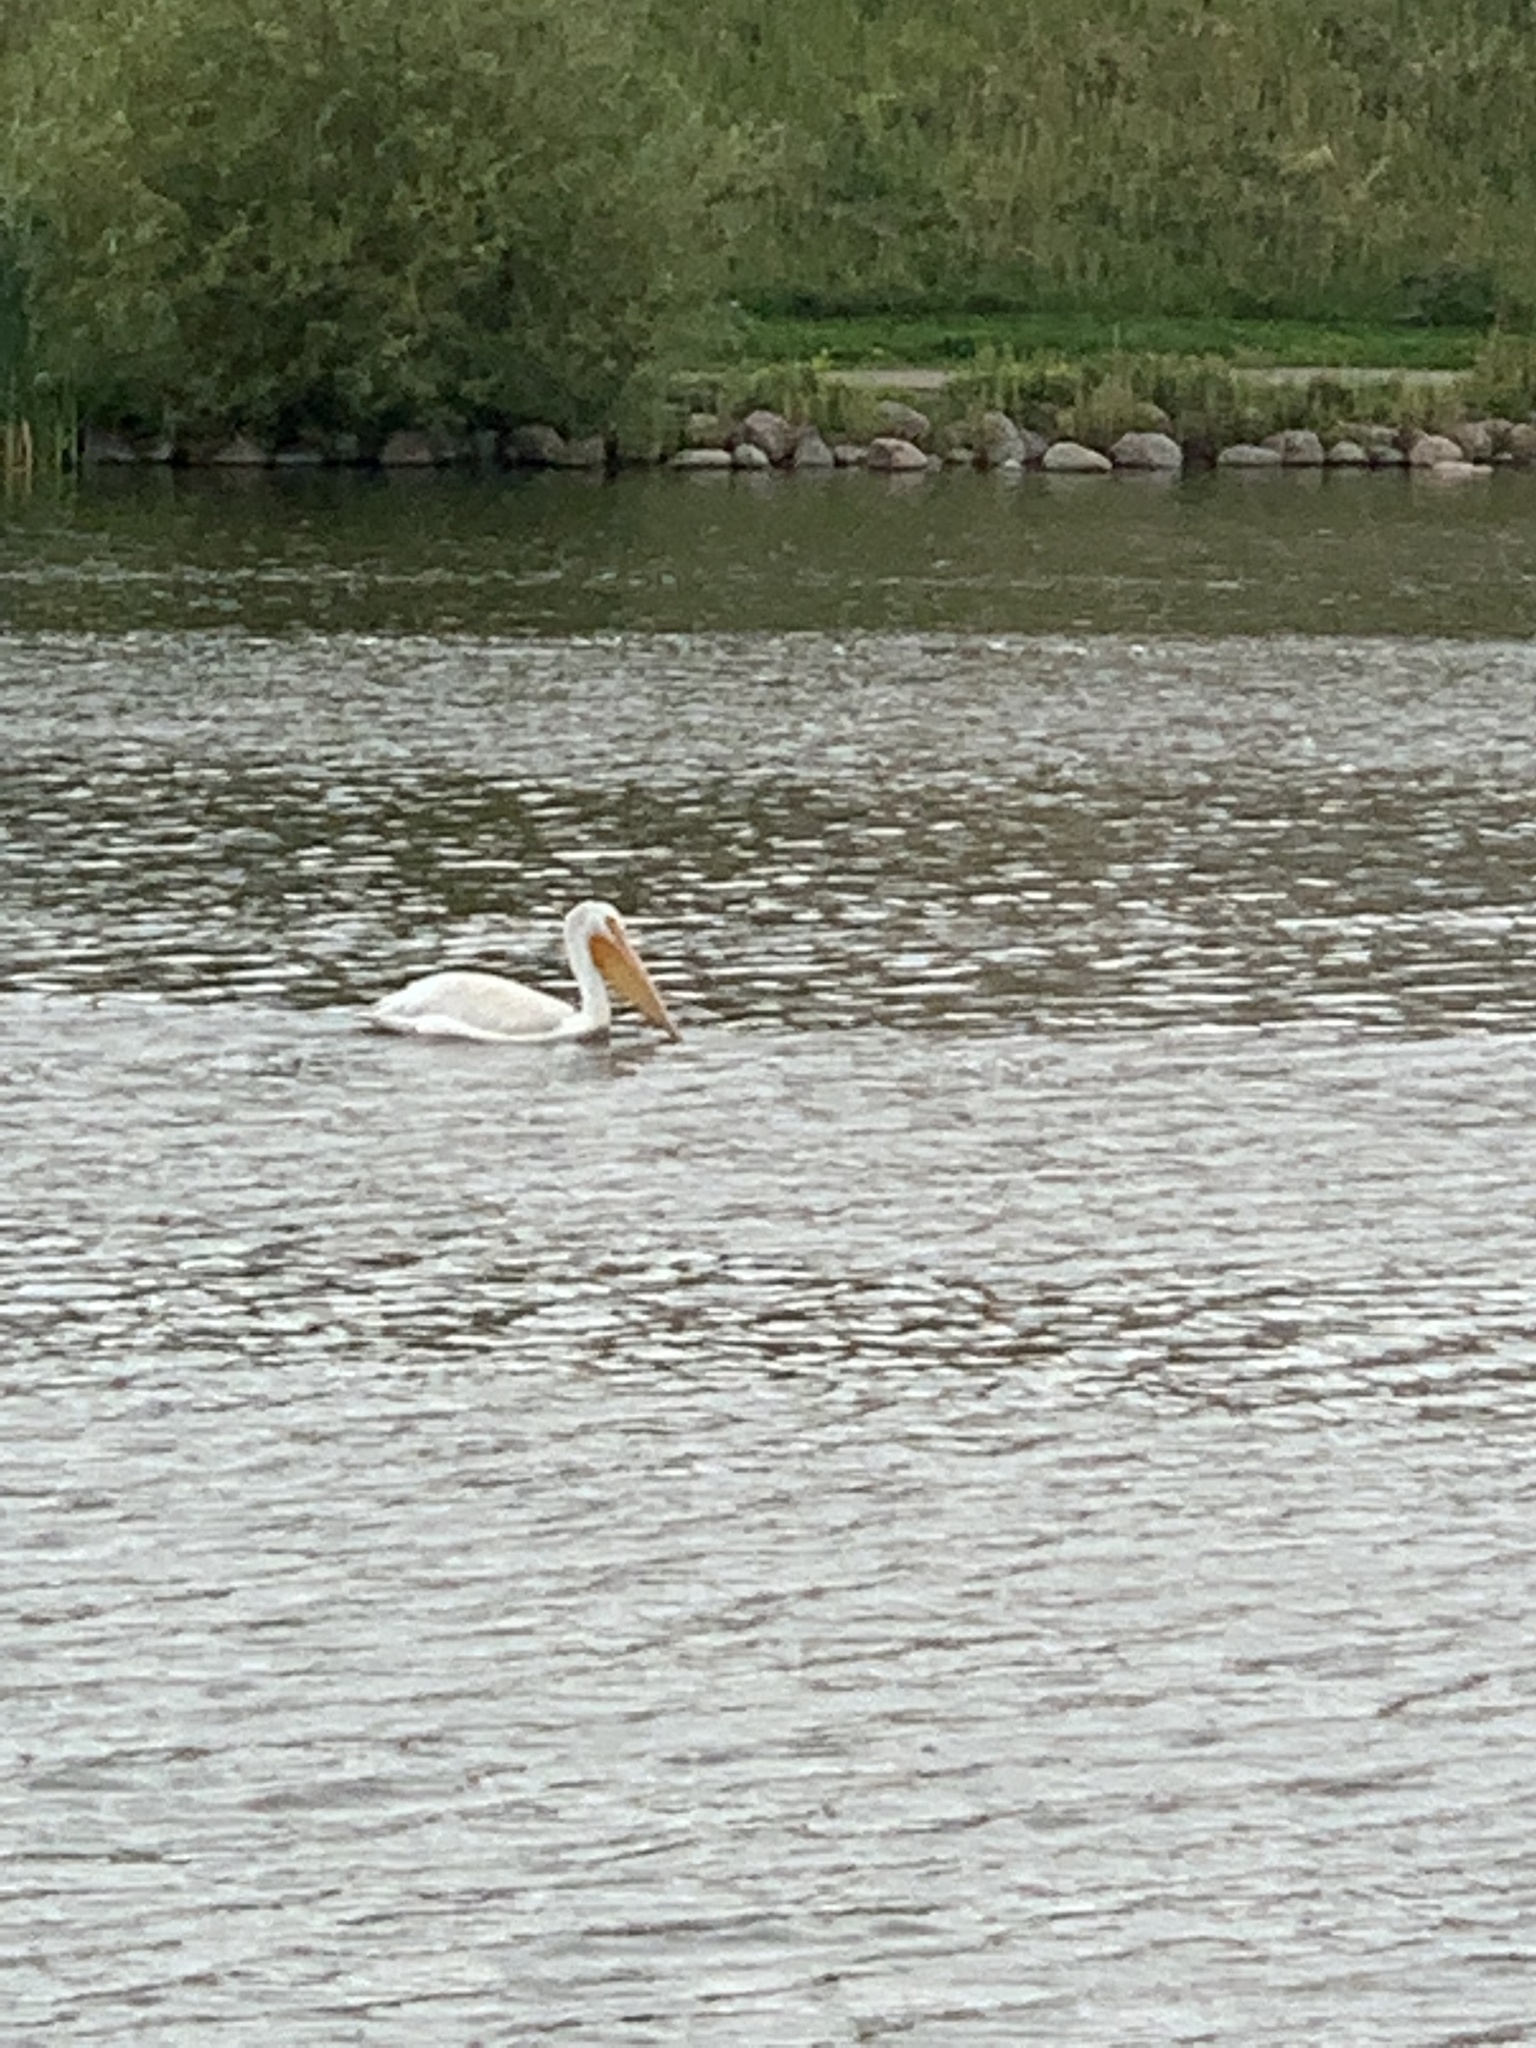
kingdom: Animalia
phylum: Chordata
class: Aves
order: Pelecaniformes
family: Pelecanidae
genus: Pelecanus
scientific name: Pelecanus erythrorhynchos
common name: American white pelican
